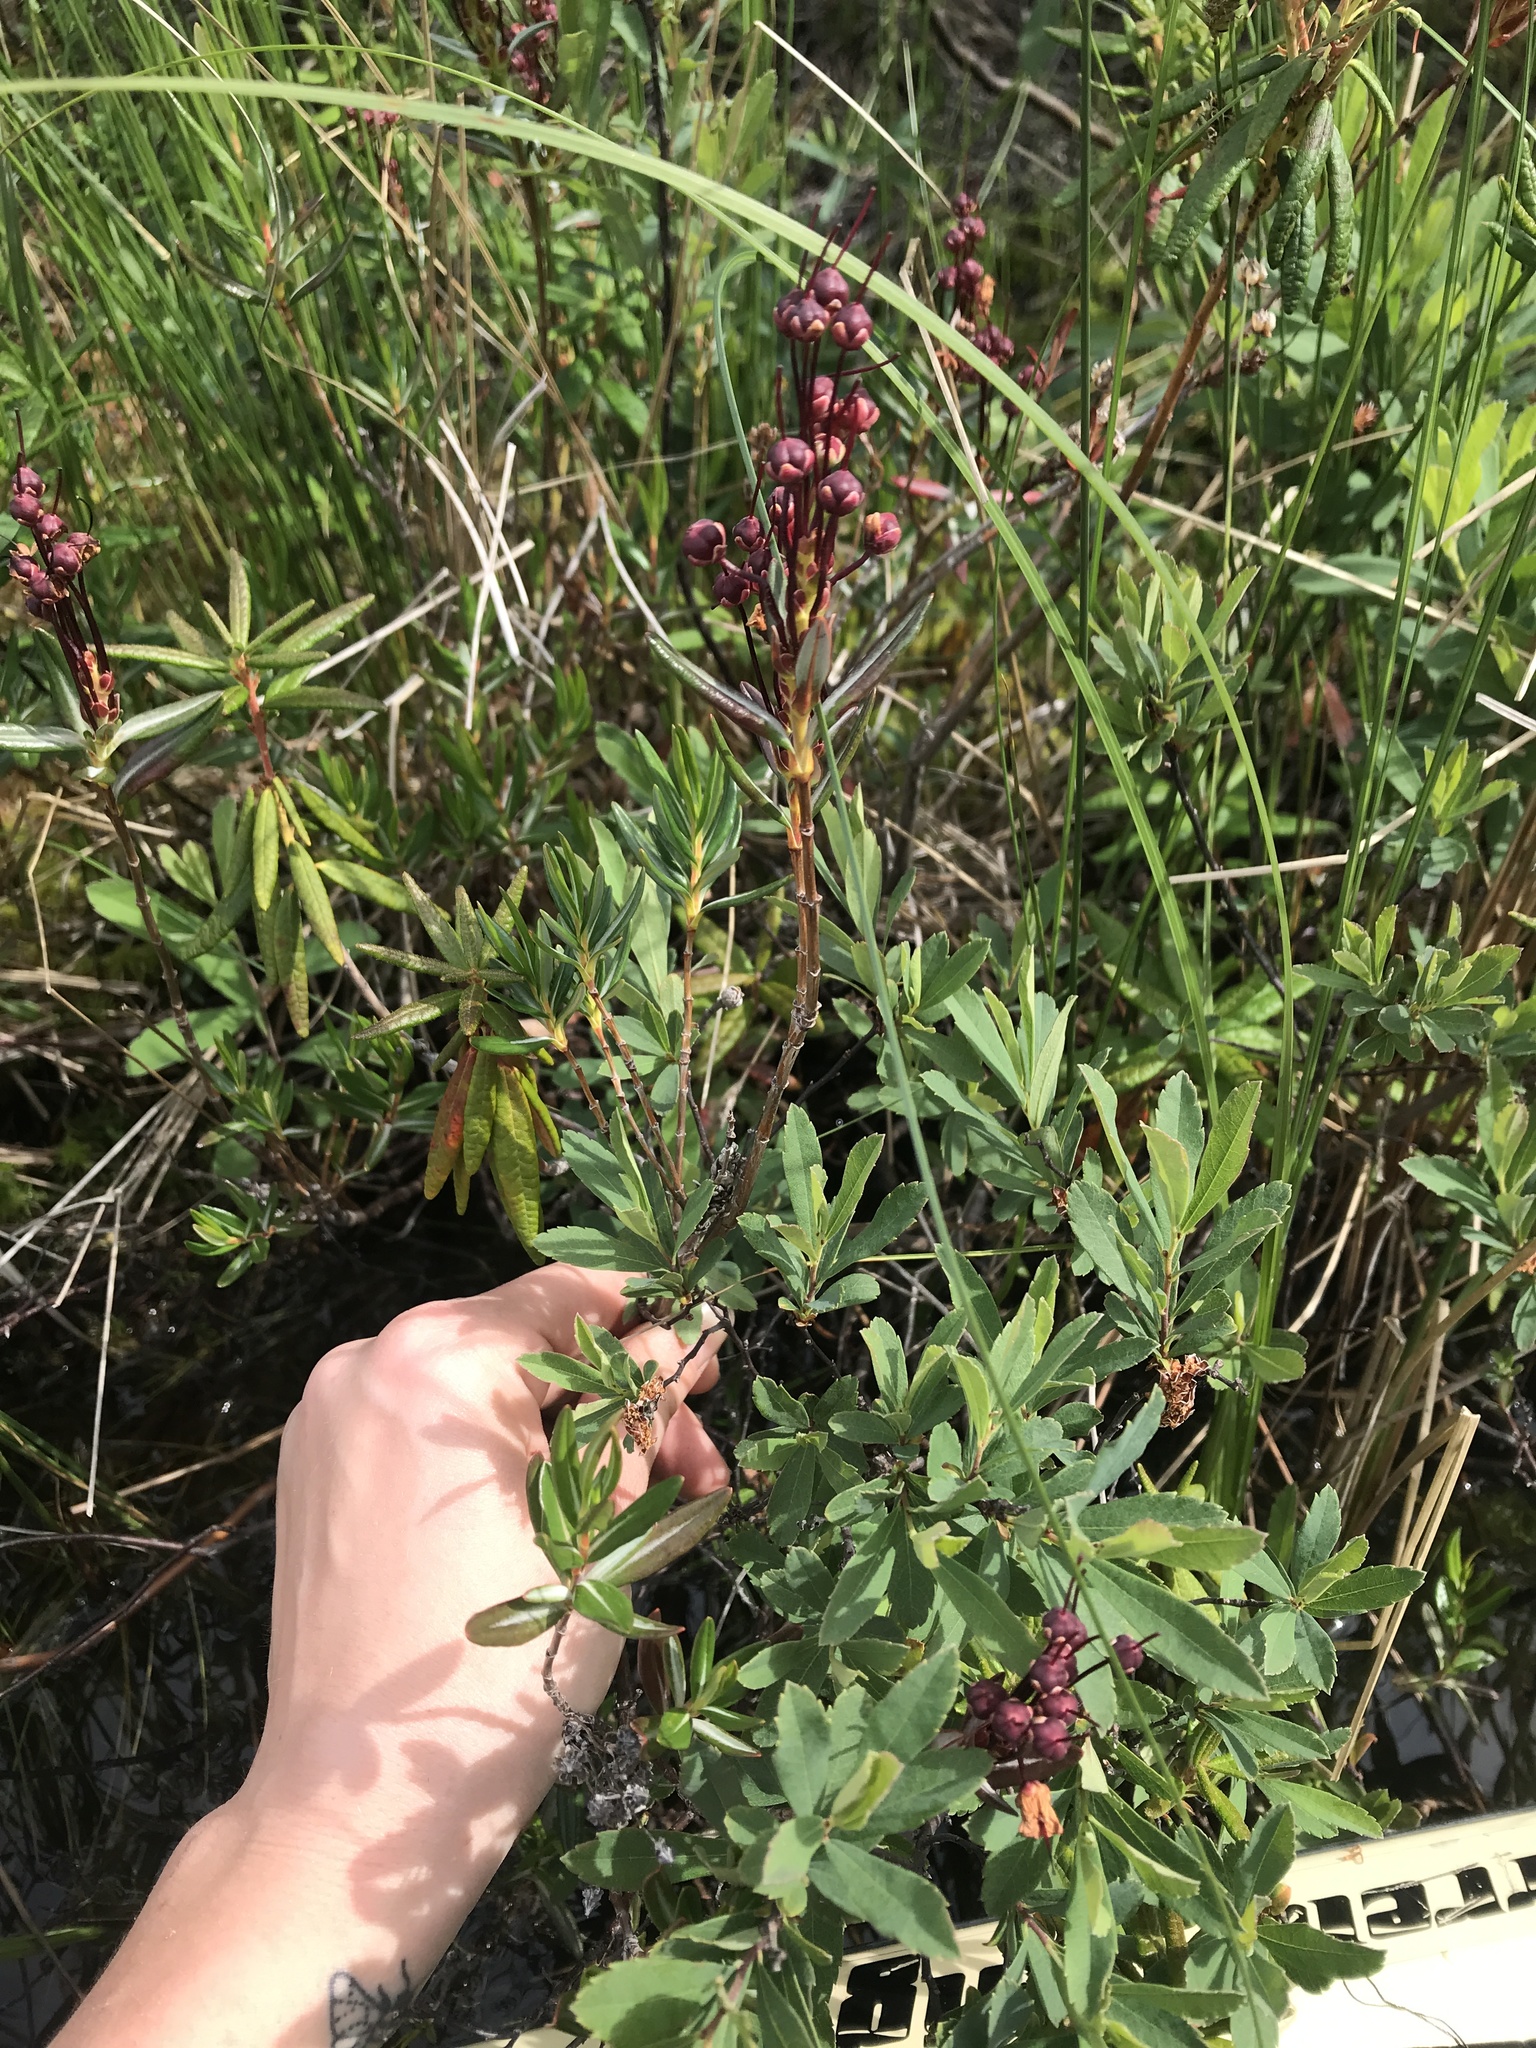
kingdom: Plantae
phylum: Tracheophyta
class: Magnoliopsida
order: Ericales
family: Ericaceae
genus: Kalmia
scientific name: Kalmia microphylla
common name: Alpine bog laurel
